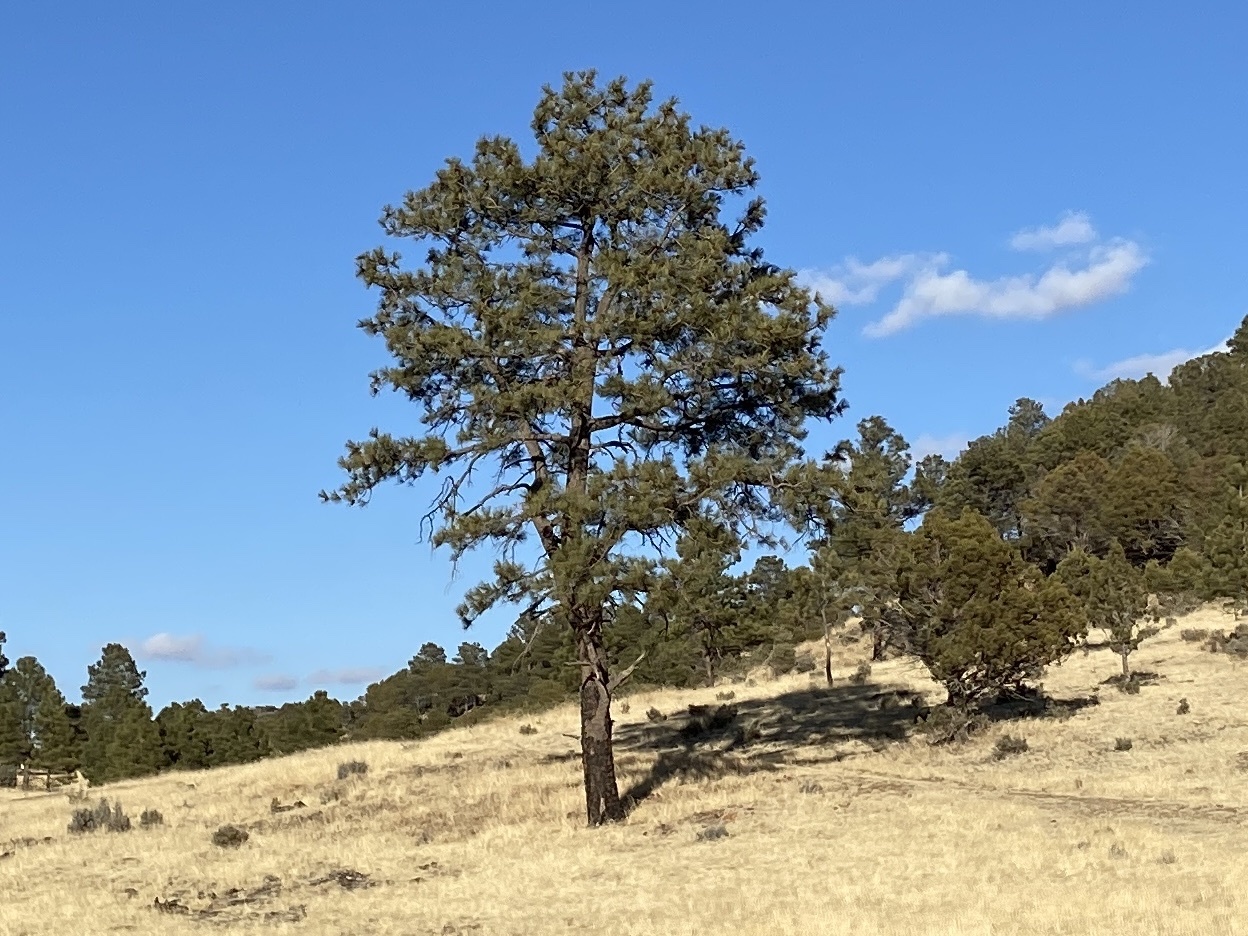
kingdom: Plantae
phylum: Tracheophyta
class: Pinopsida
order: Pinales
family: Pinaceae
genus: Pinus
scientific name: Pinus ponderosa
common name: Western yellow-pine
